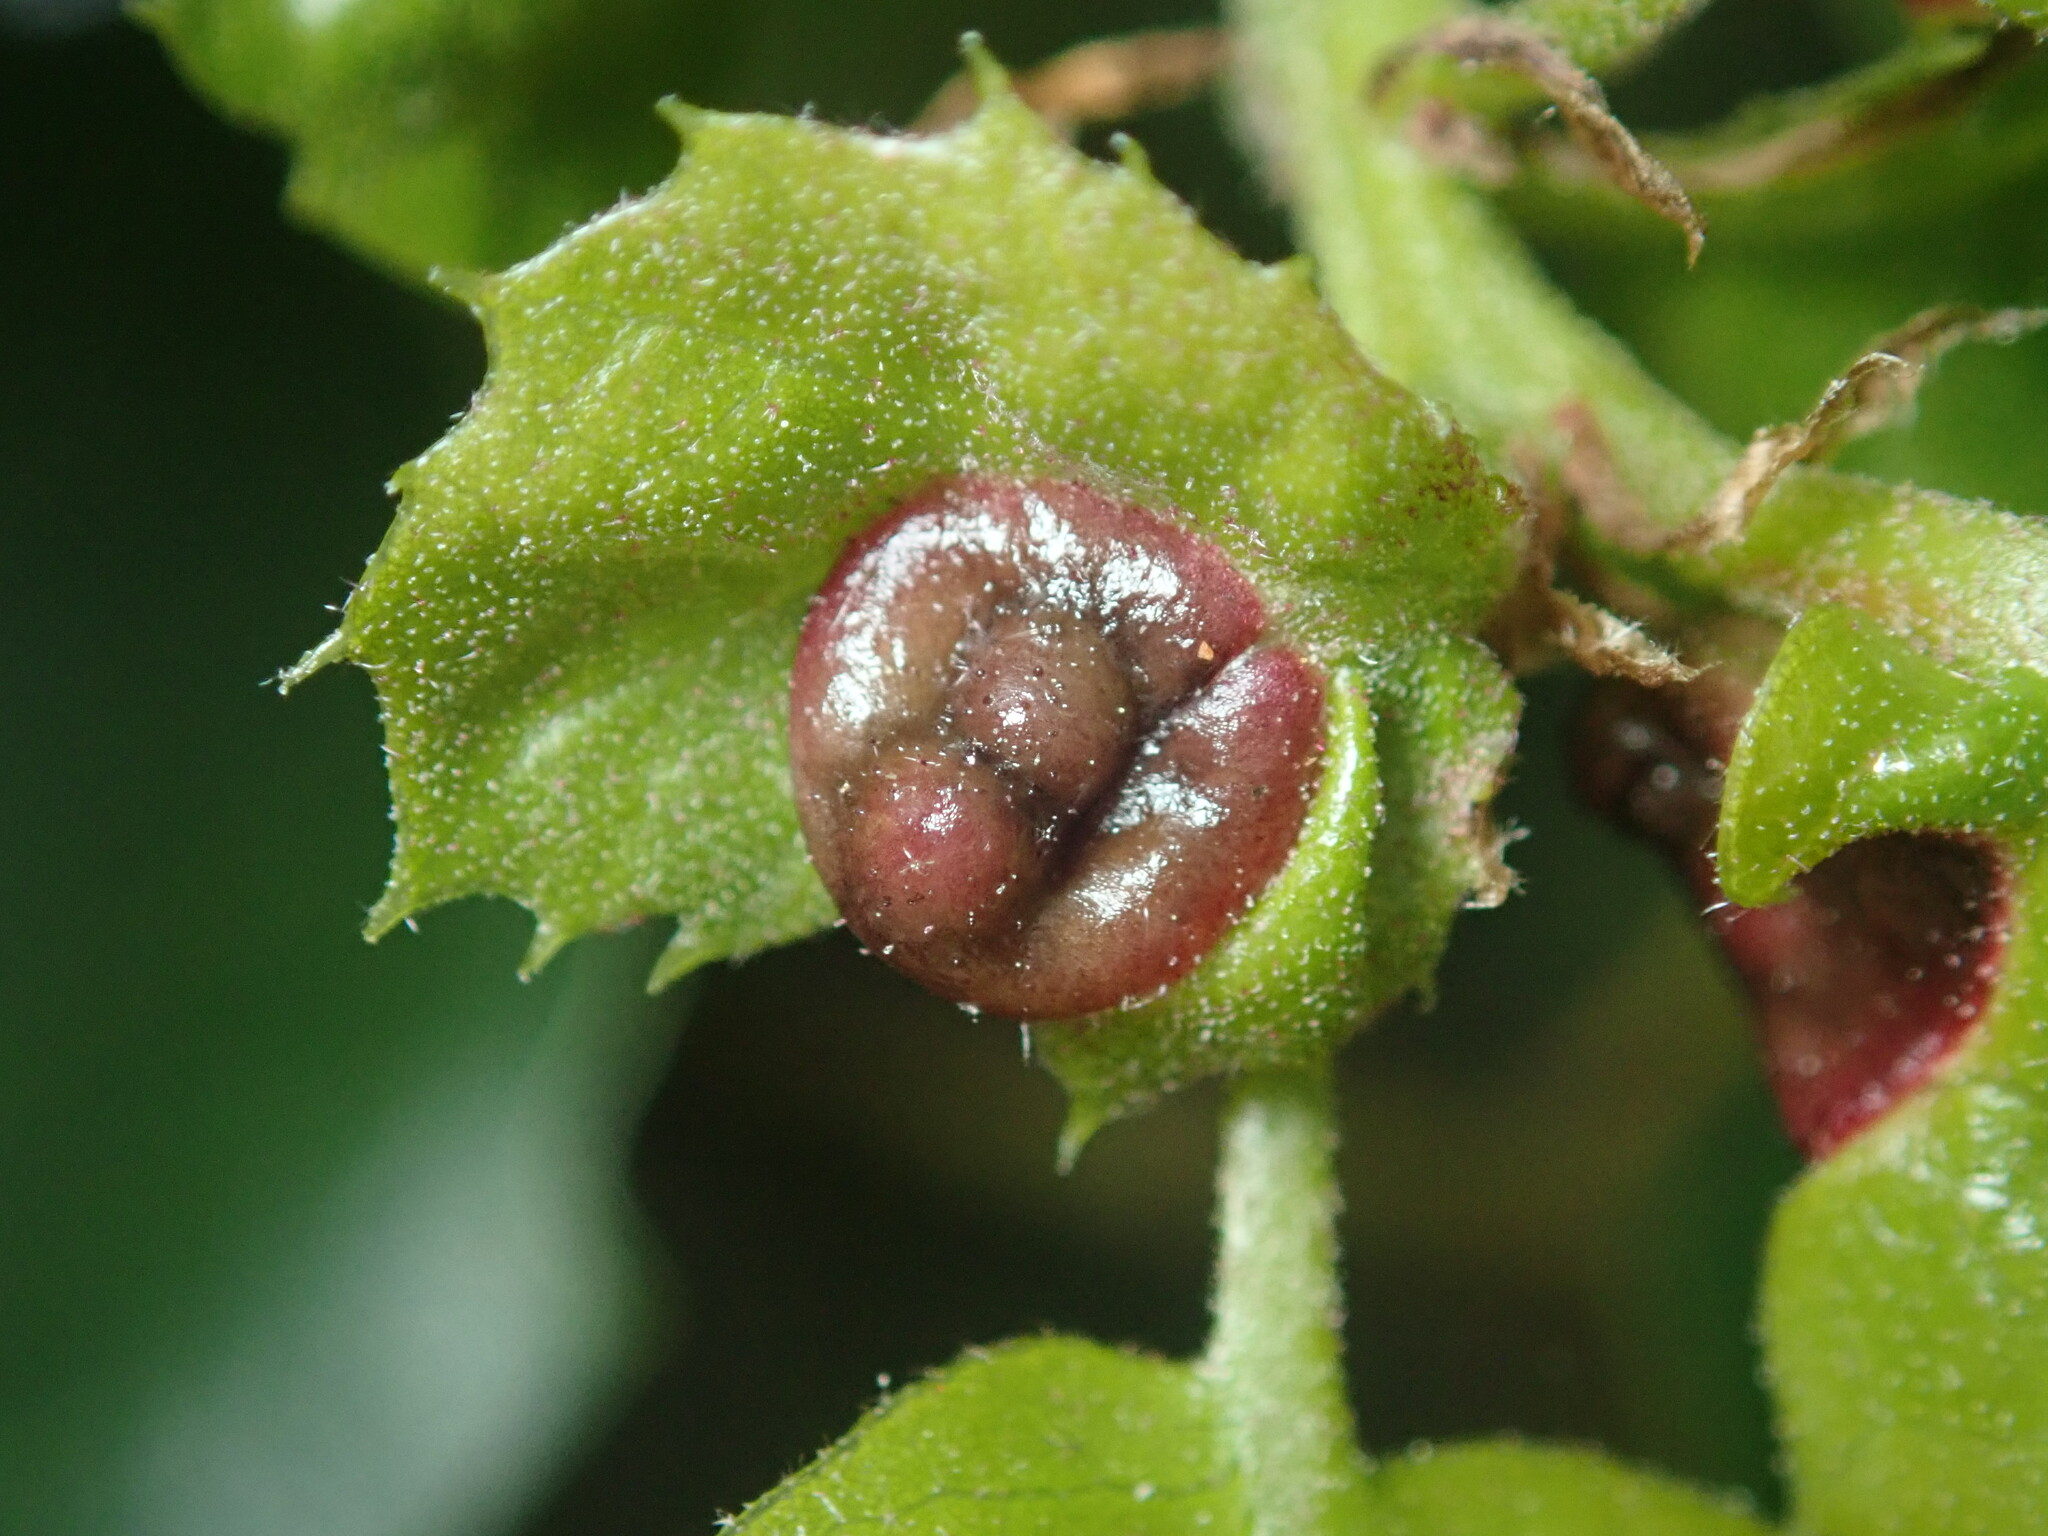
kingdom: Animalia
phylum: Arthropoda
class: Insecta
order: Hymenoptera
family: Cynipidae
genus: Dryocosmus
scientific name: Dryocosmus
